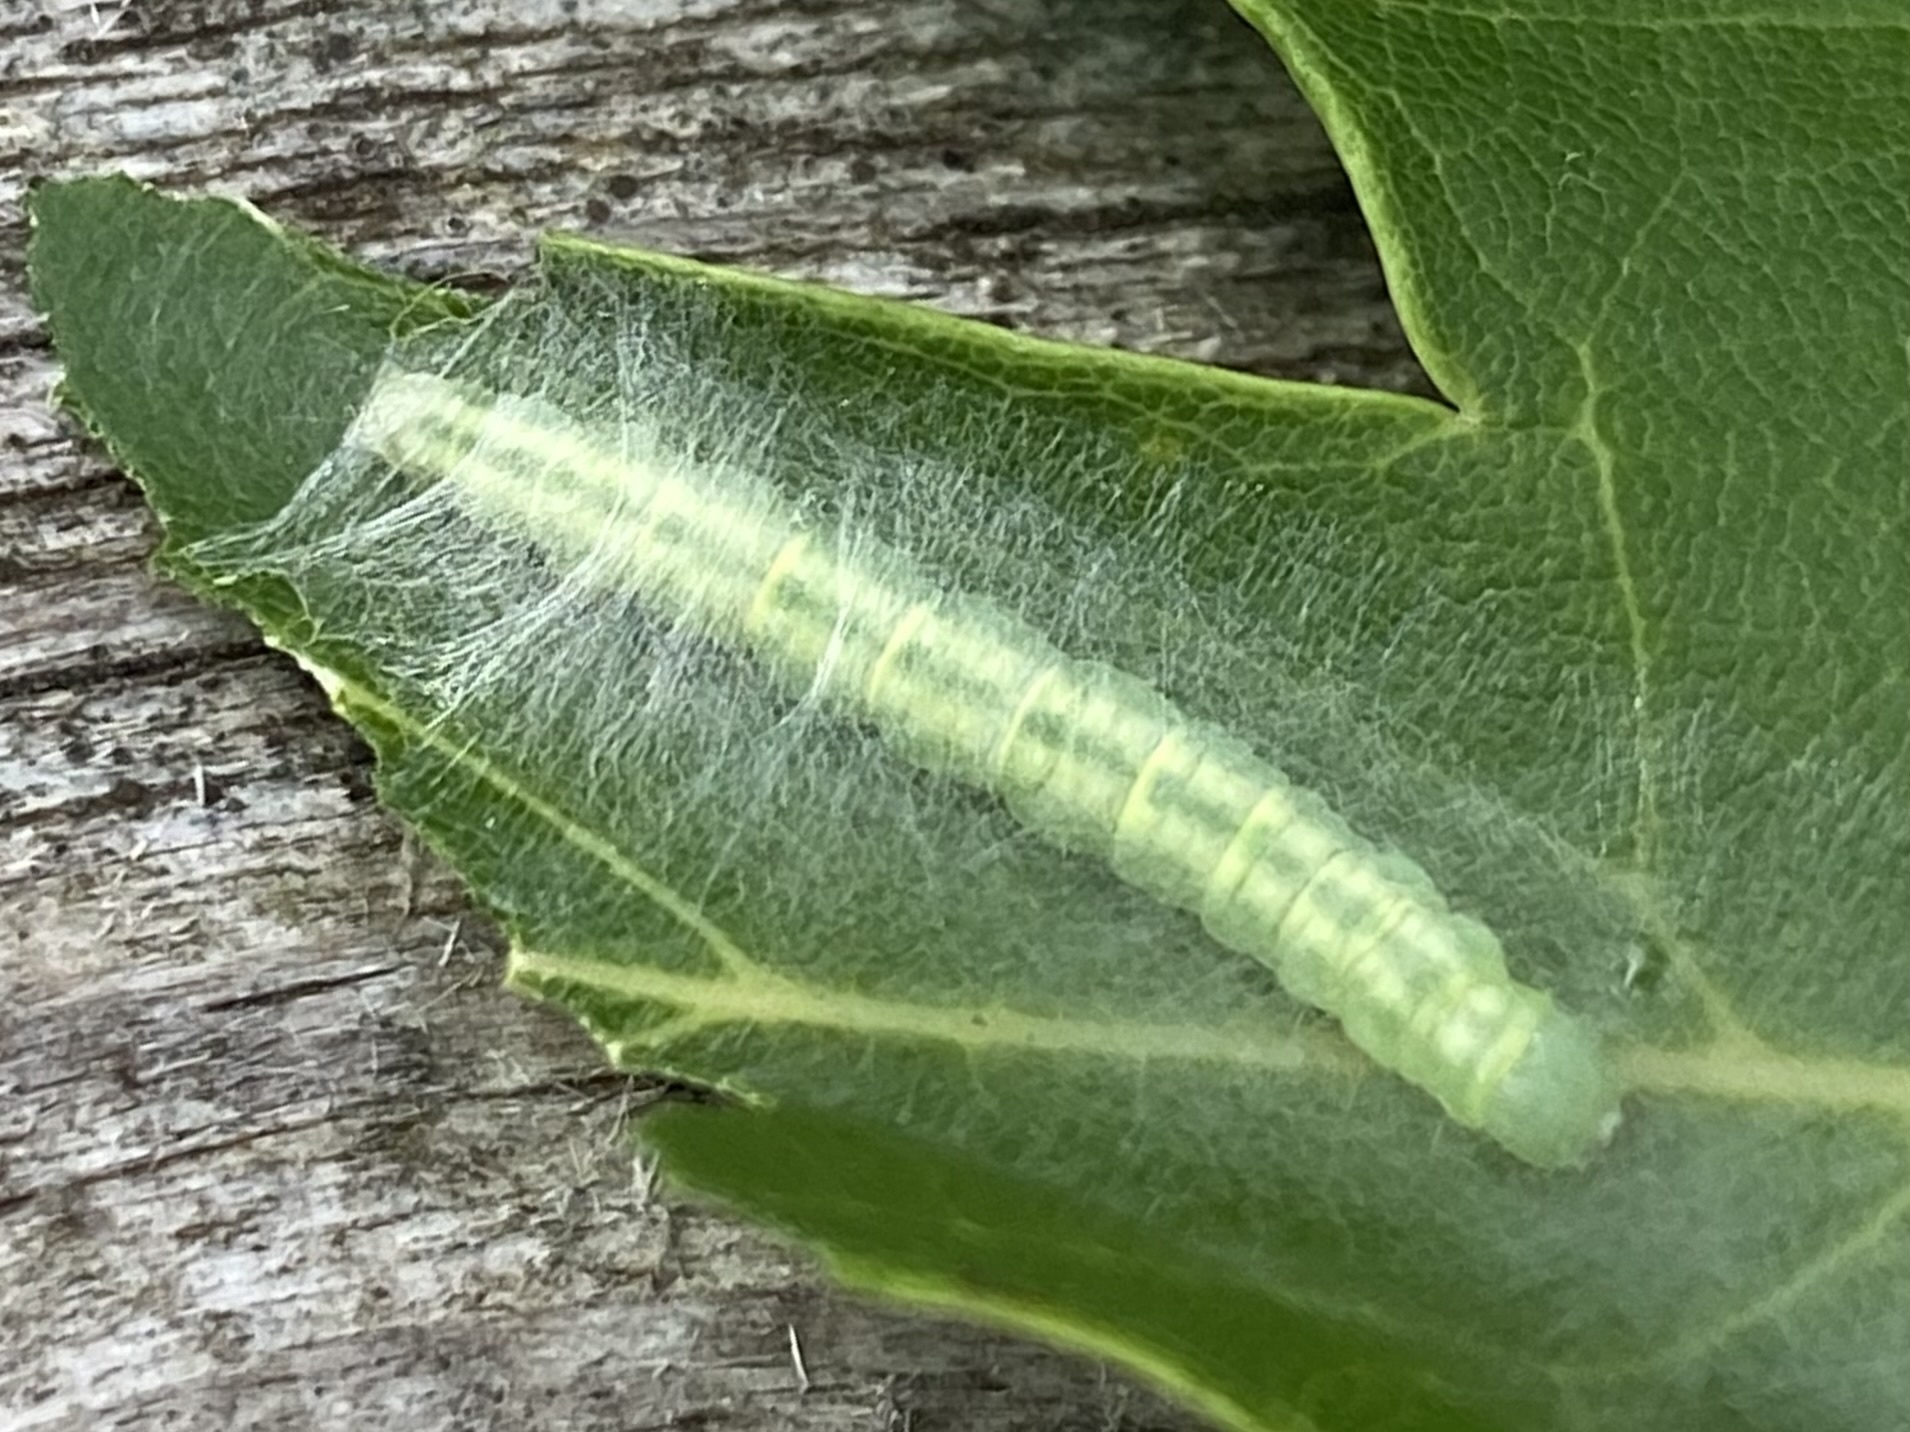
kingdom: Animalia
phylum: Arthropoda
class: Insecta
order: Lepidoptera
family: Peleopodidae
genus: Machimia
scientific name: Machimia tentoriferella
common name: Gold-striped leaftier moth
